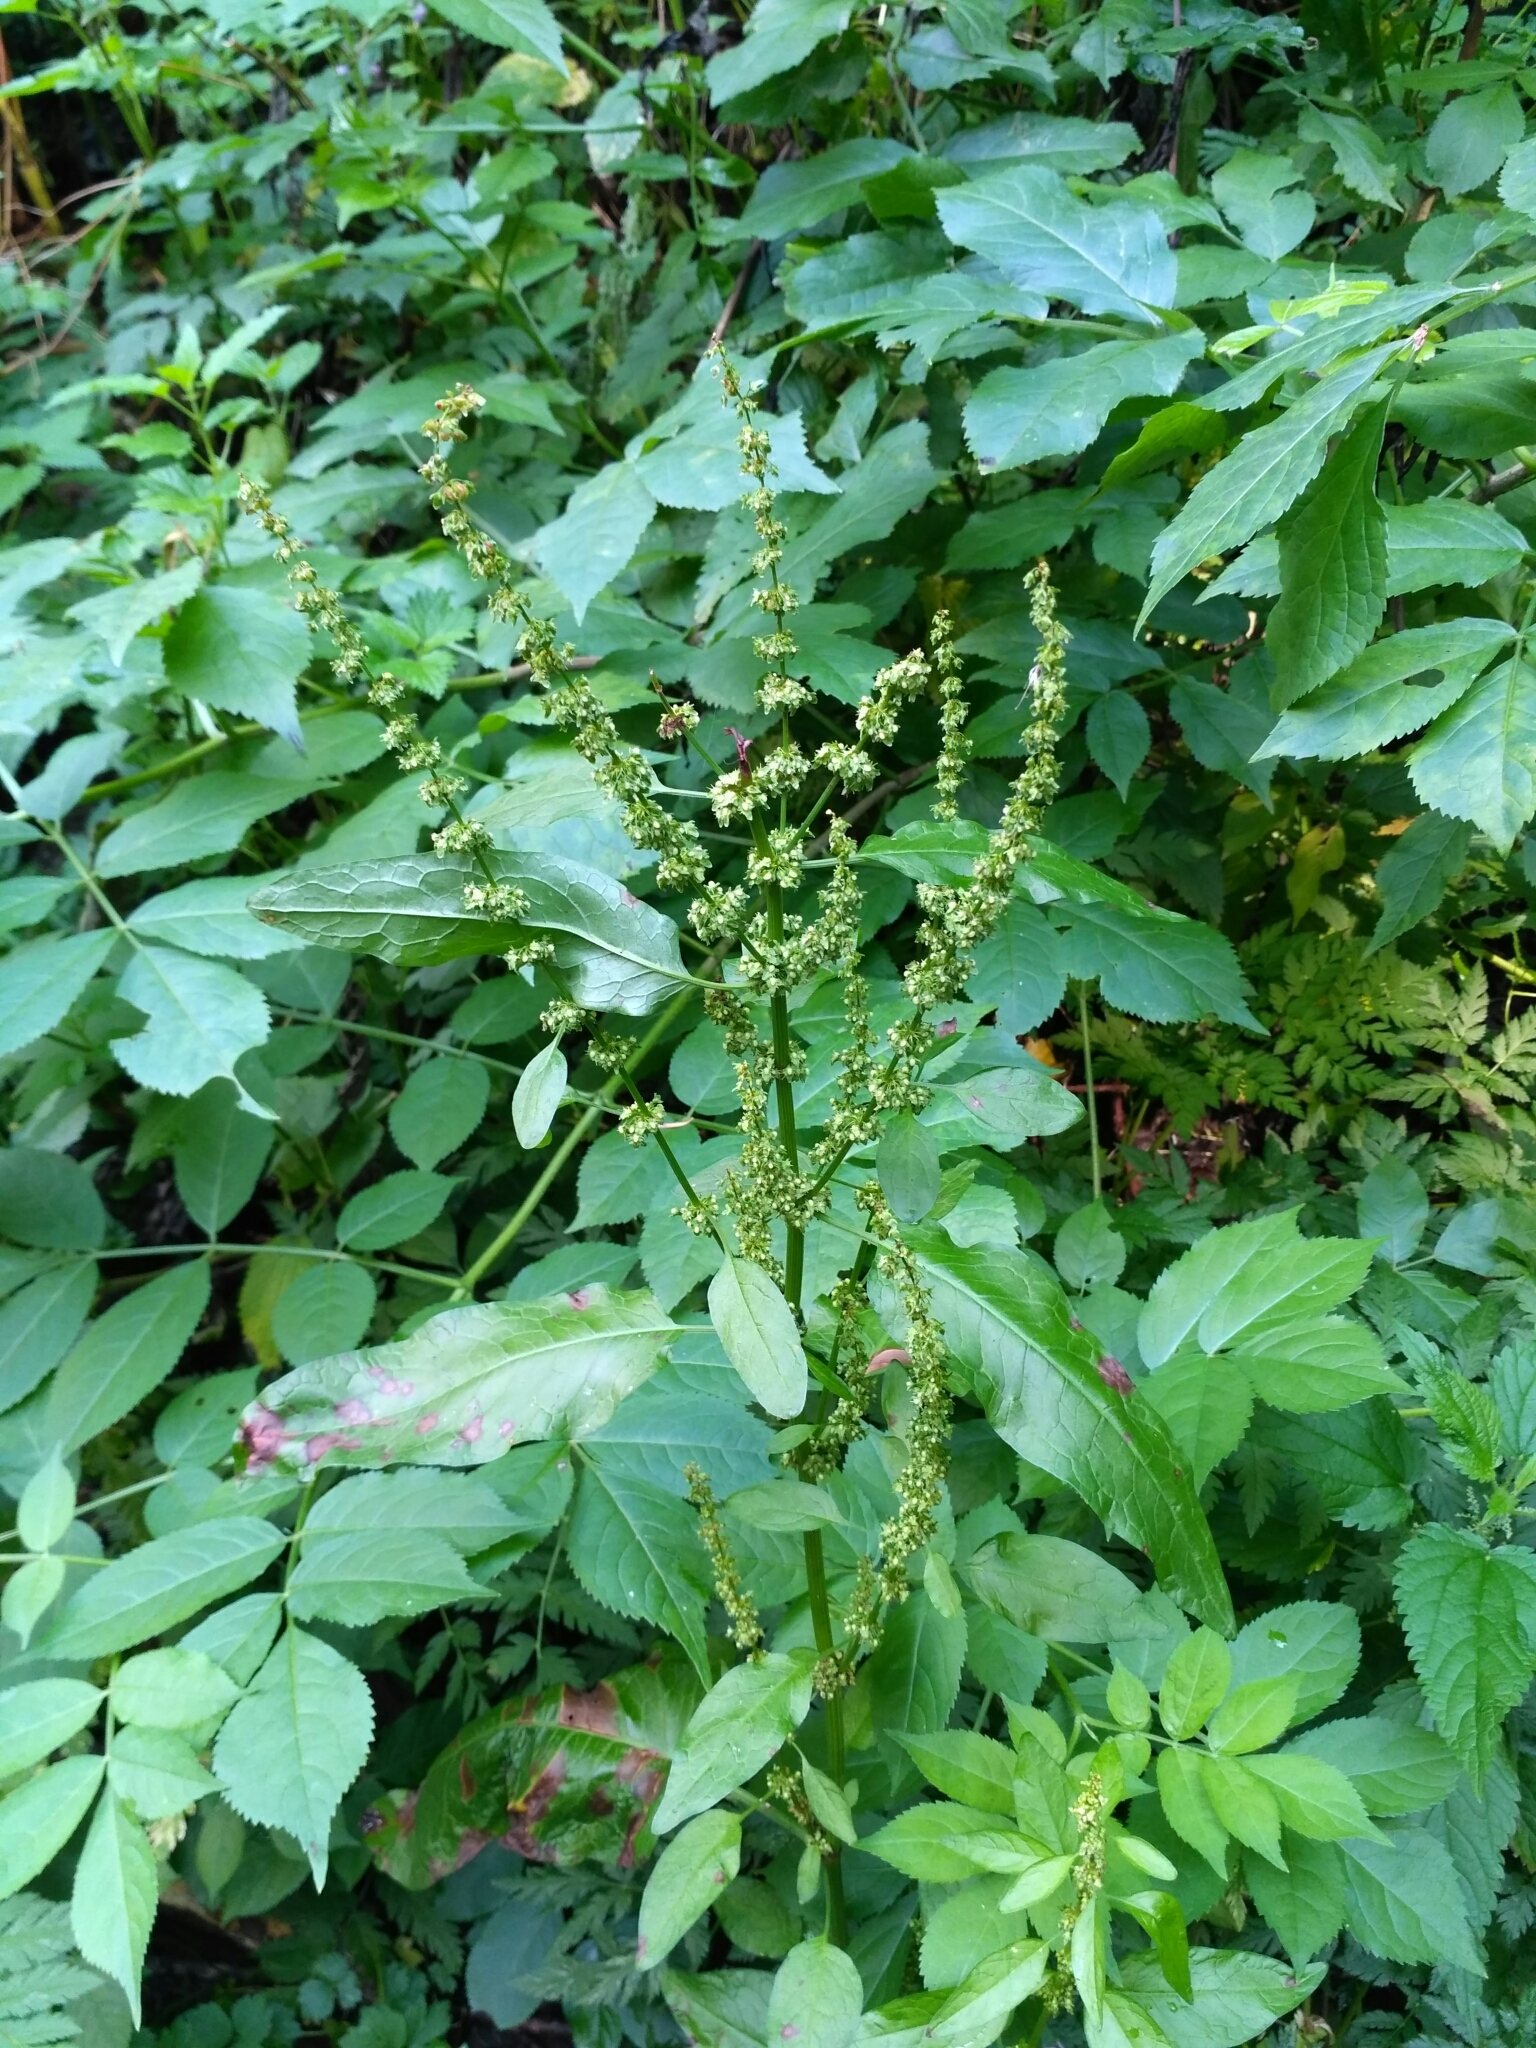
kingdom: Plantae
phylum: Tracheophyta
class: Magnoliopsida
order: Caryophyllales
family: Polygonaceae
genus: Rumex
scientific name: Rumex obtusifolius
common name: Bitter dock
